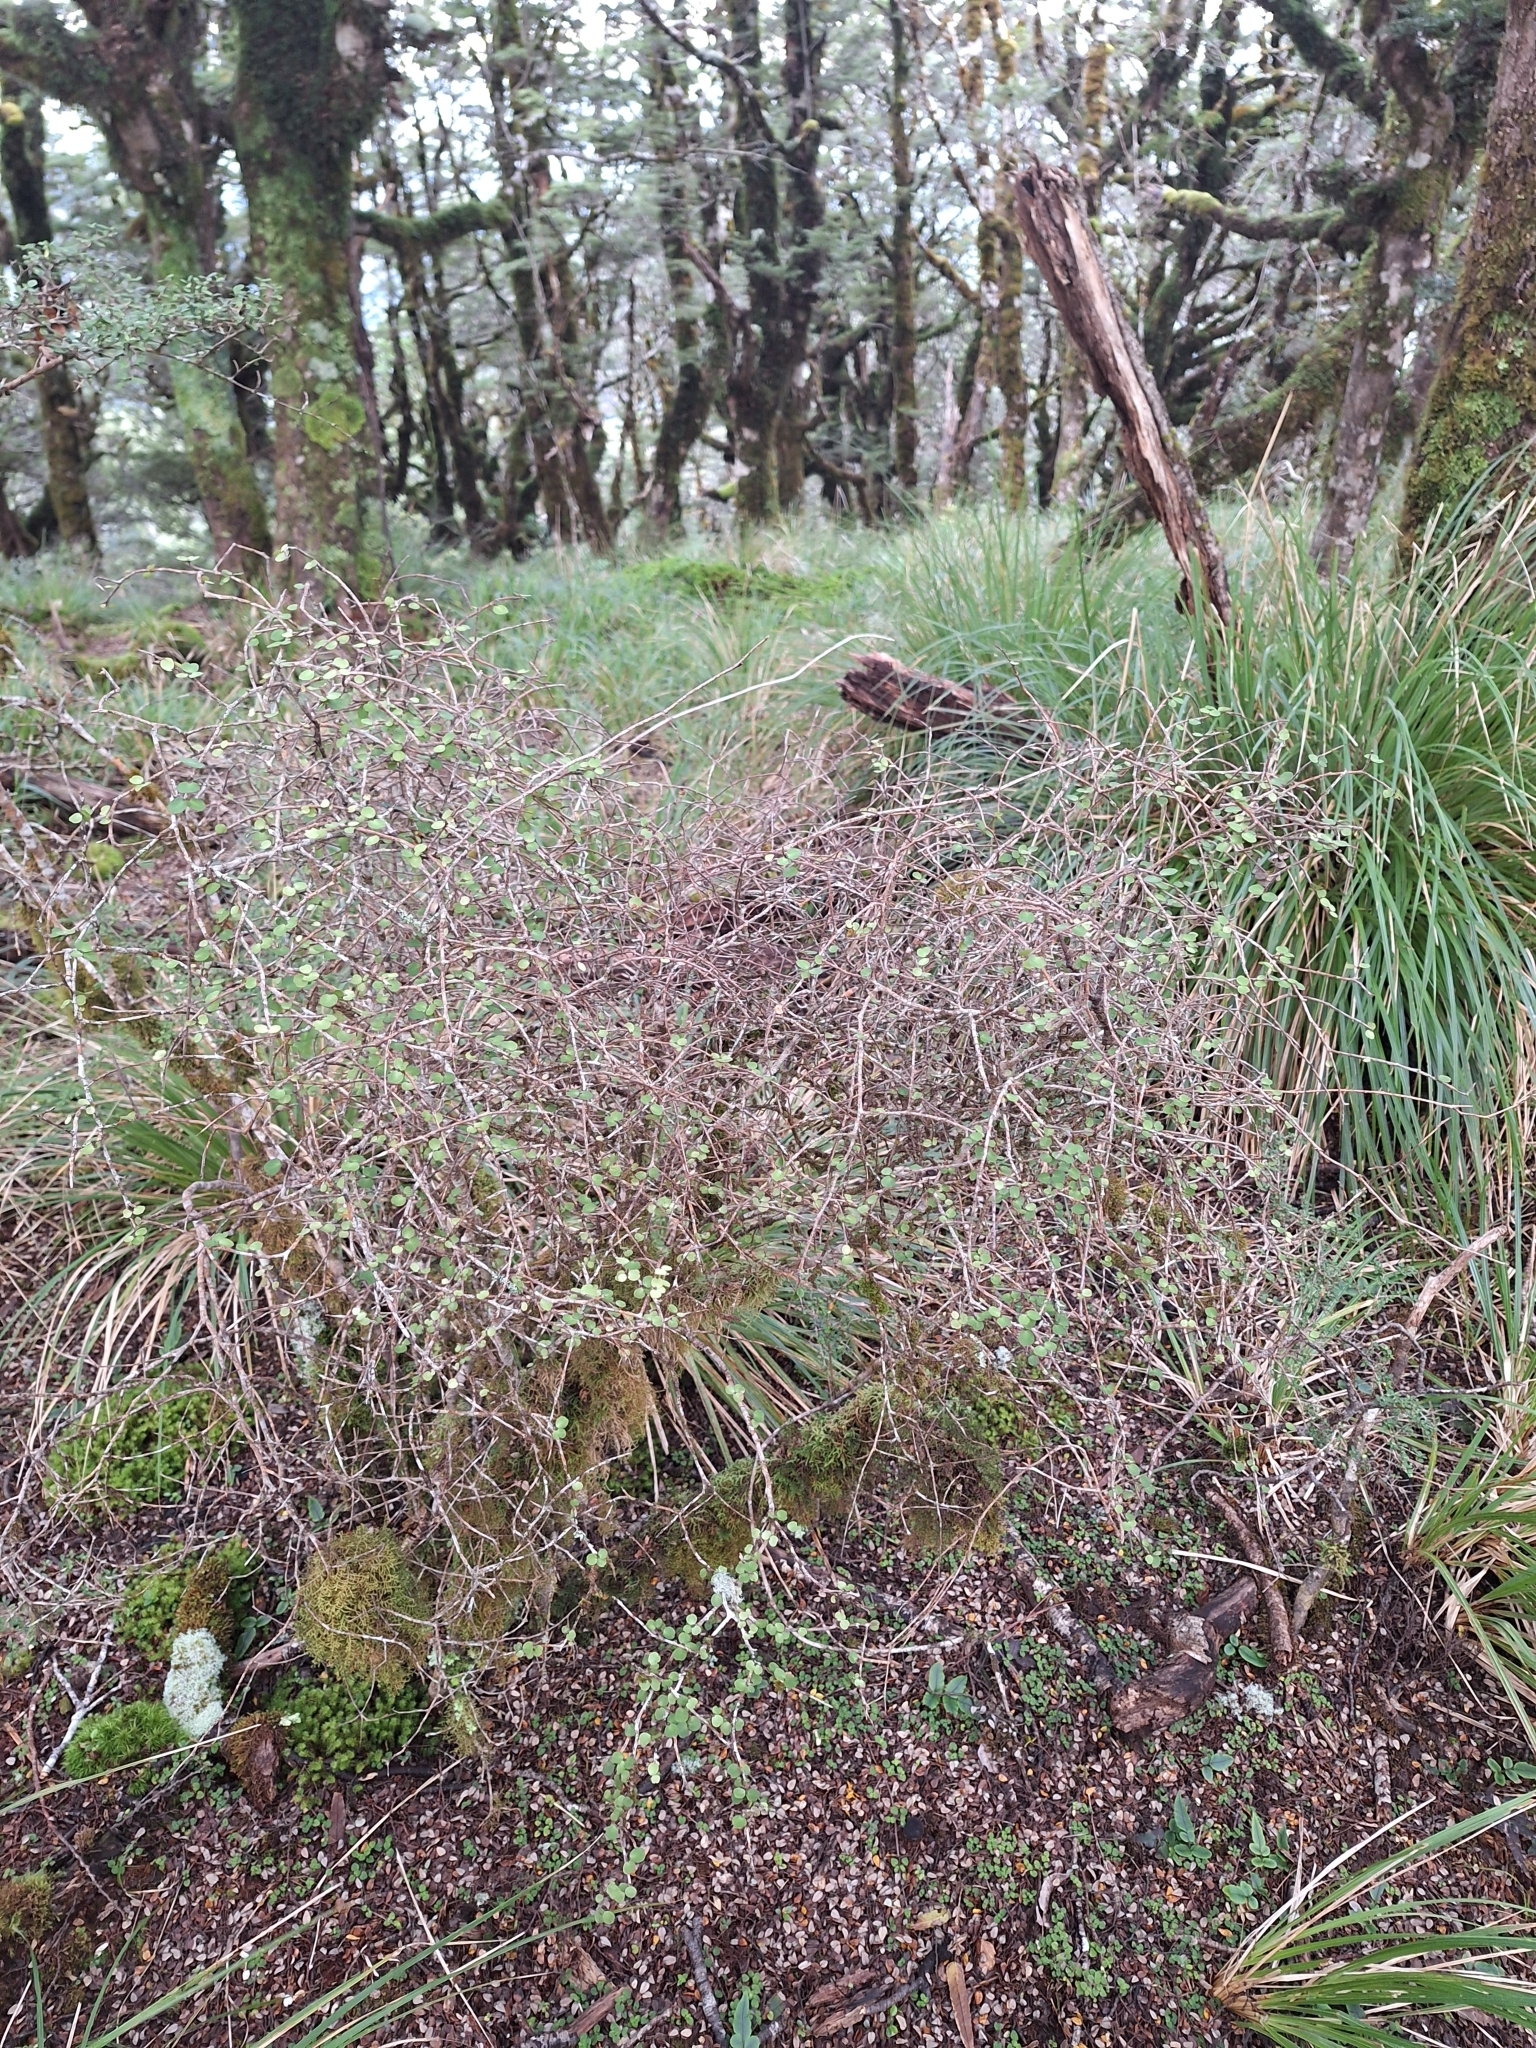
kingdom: Plantae
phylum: Tracheophyta
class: Magnoliopsida
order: Ericales
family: Primulaceae
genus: Myrsine
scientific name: Myrsine divaricata
